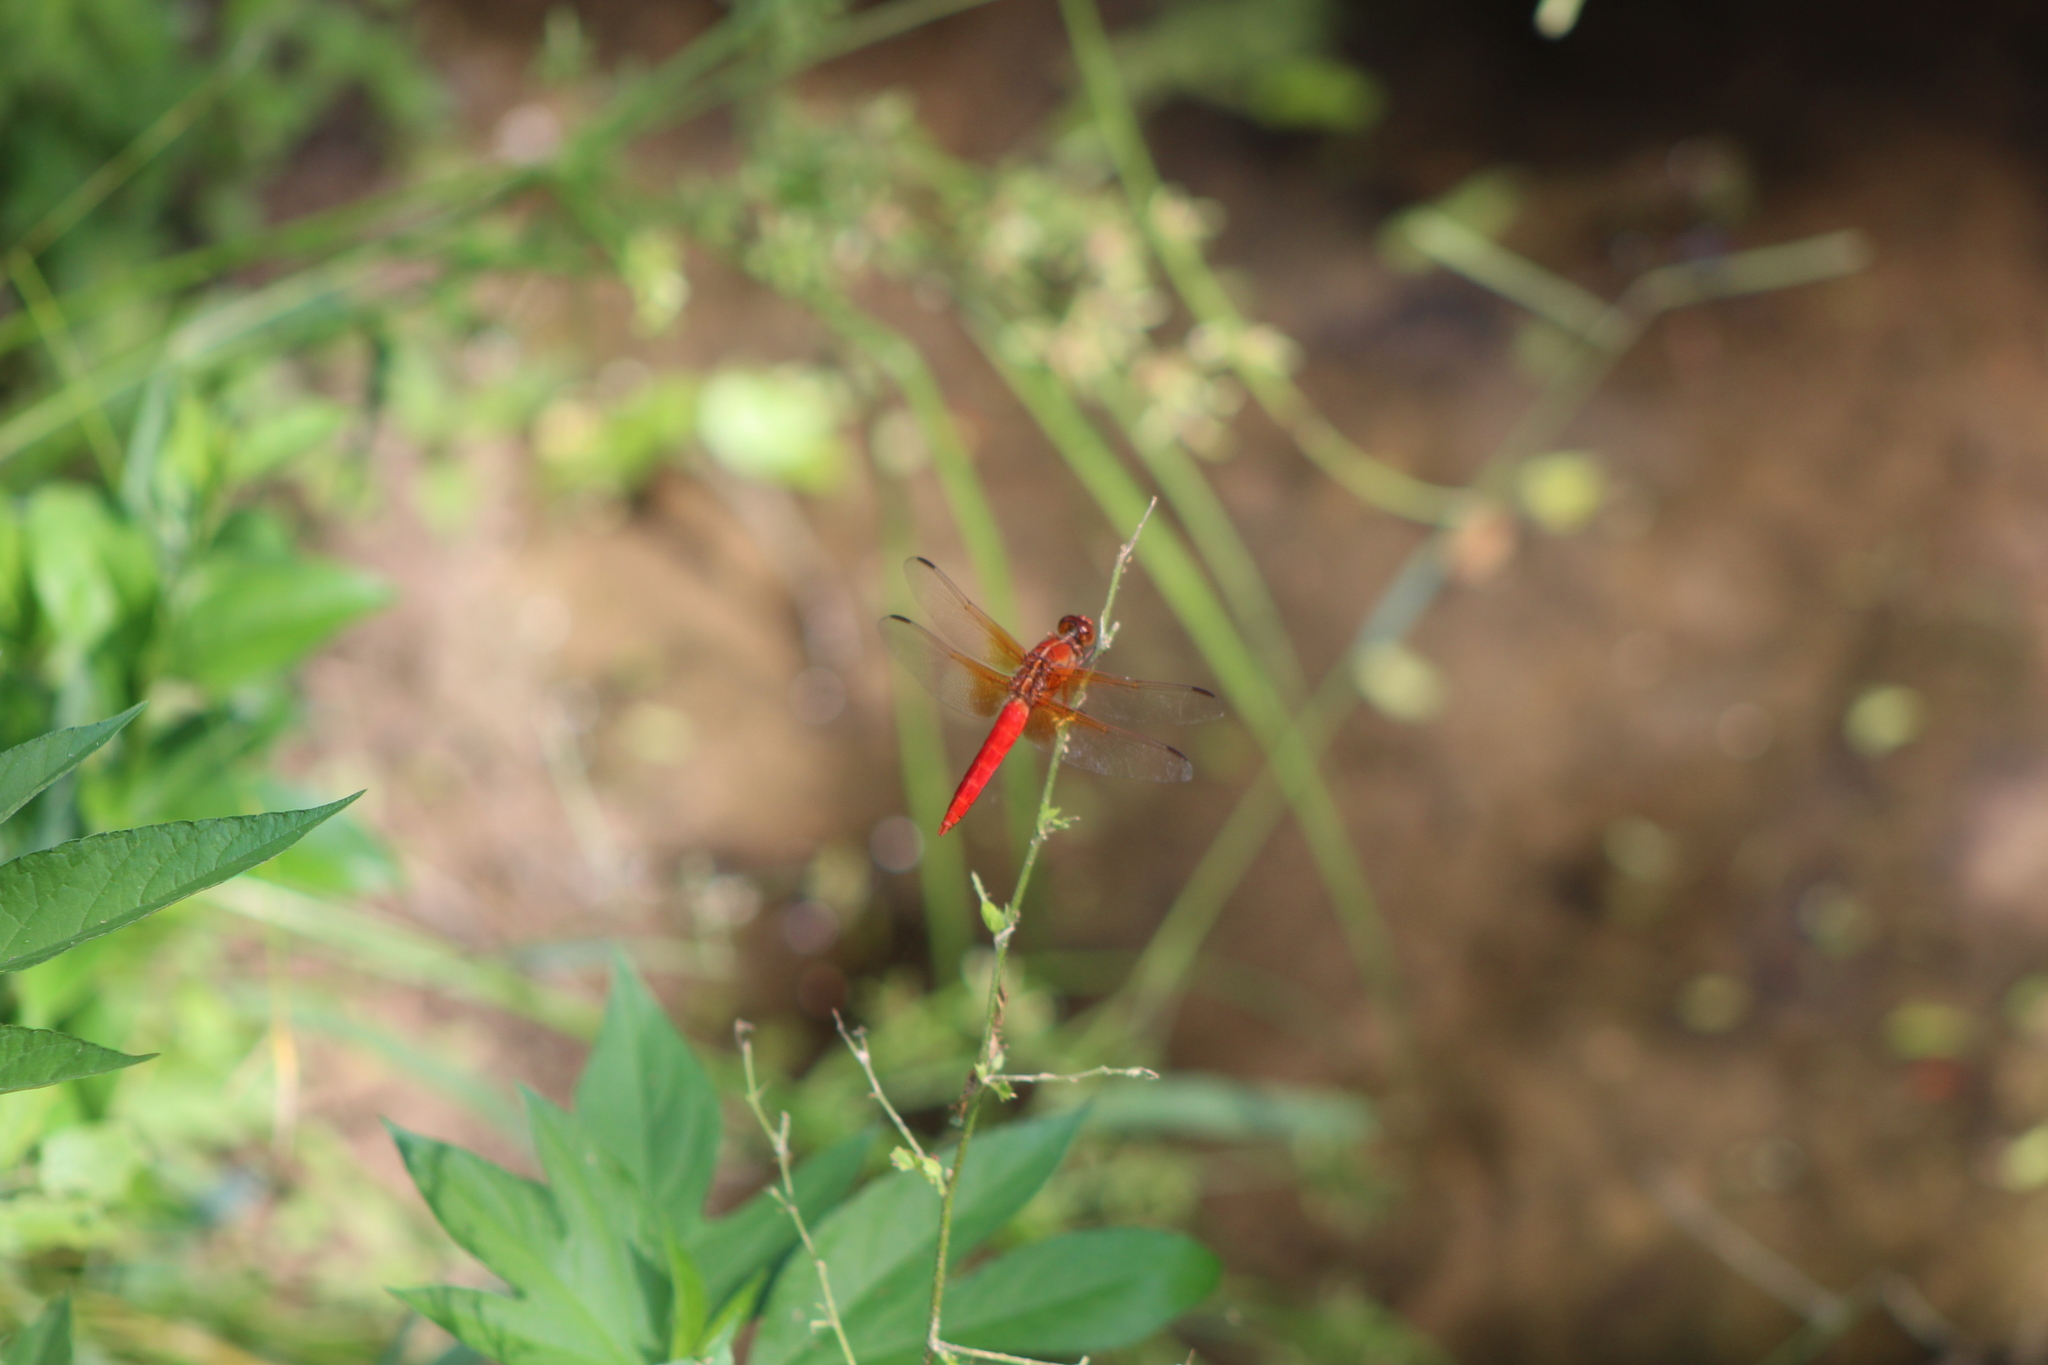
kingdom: Animalia
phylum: Arthropoda
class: Insecta
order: Odonata
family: Libellulidae
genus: Libellula
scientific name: Libellula croceipennis
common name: Neon skimmer
